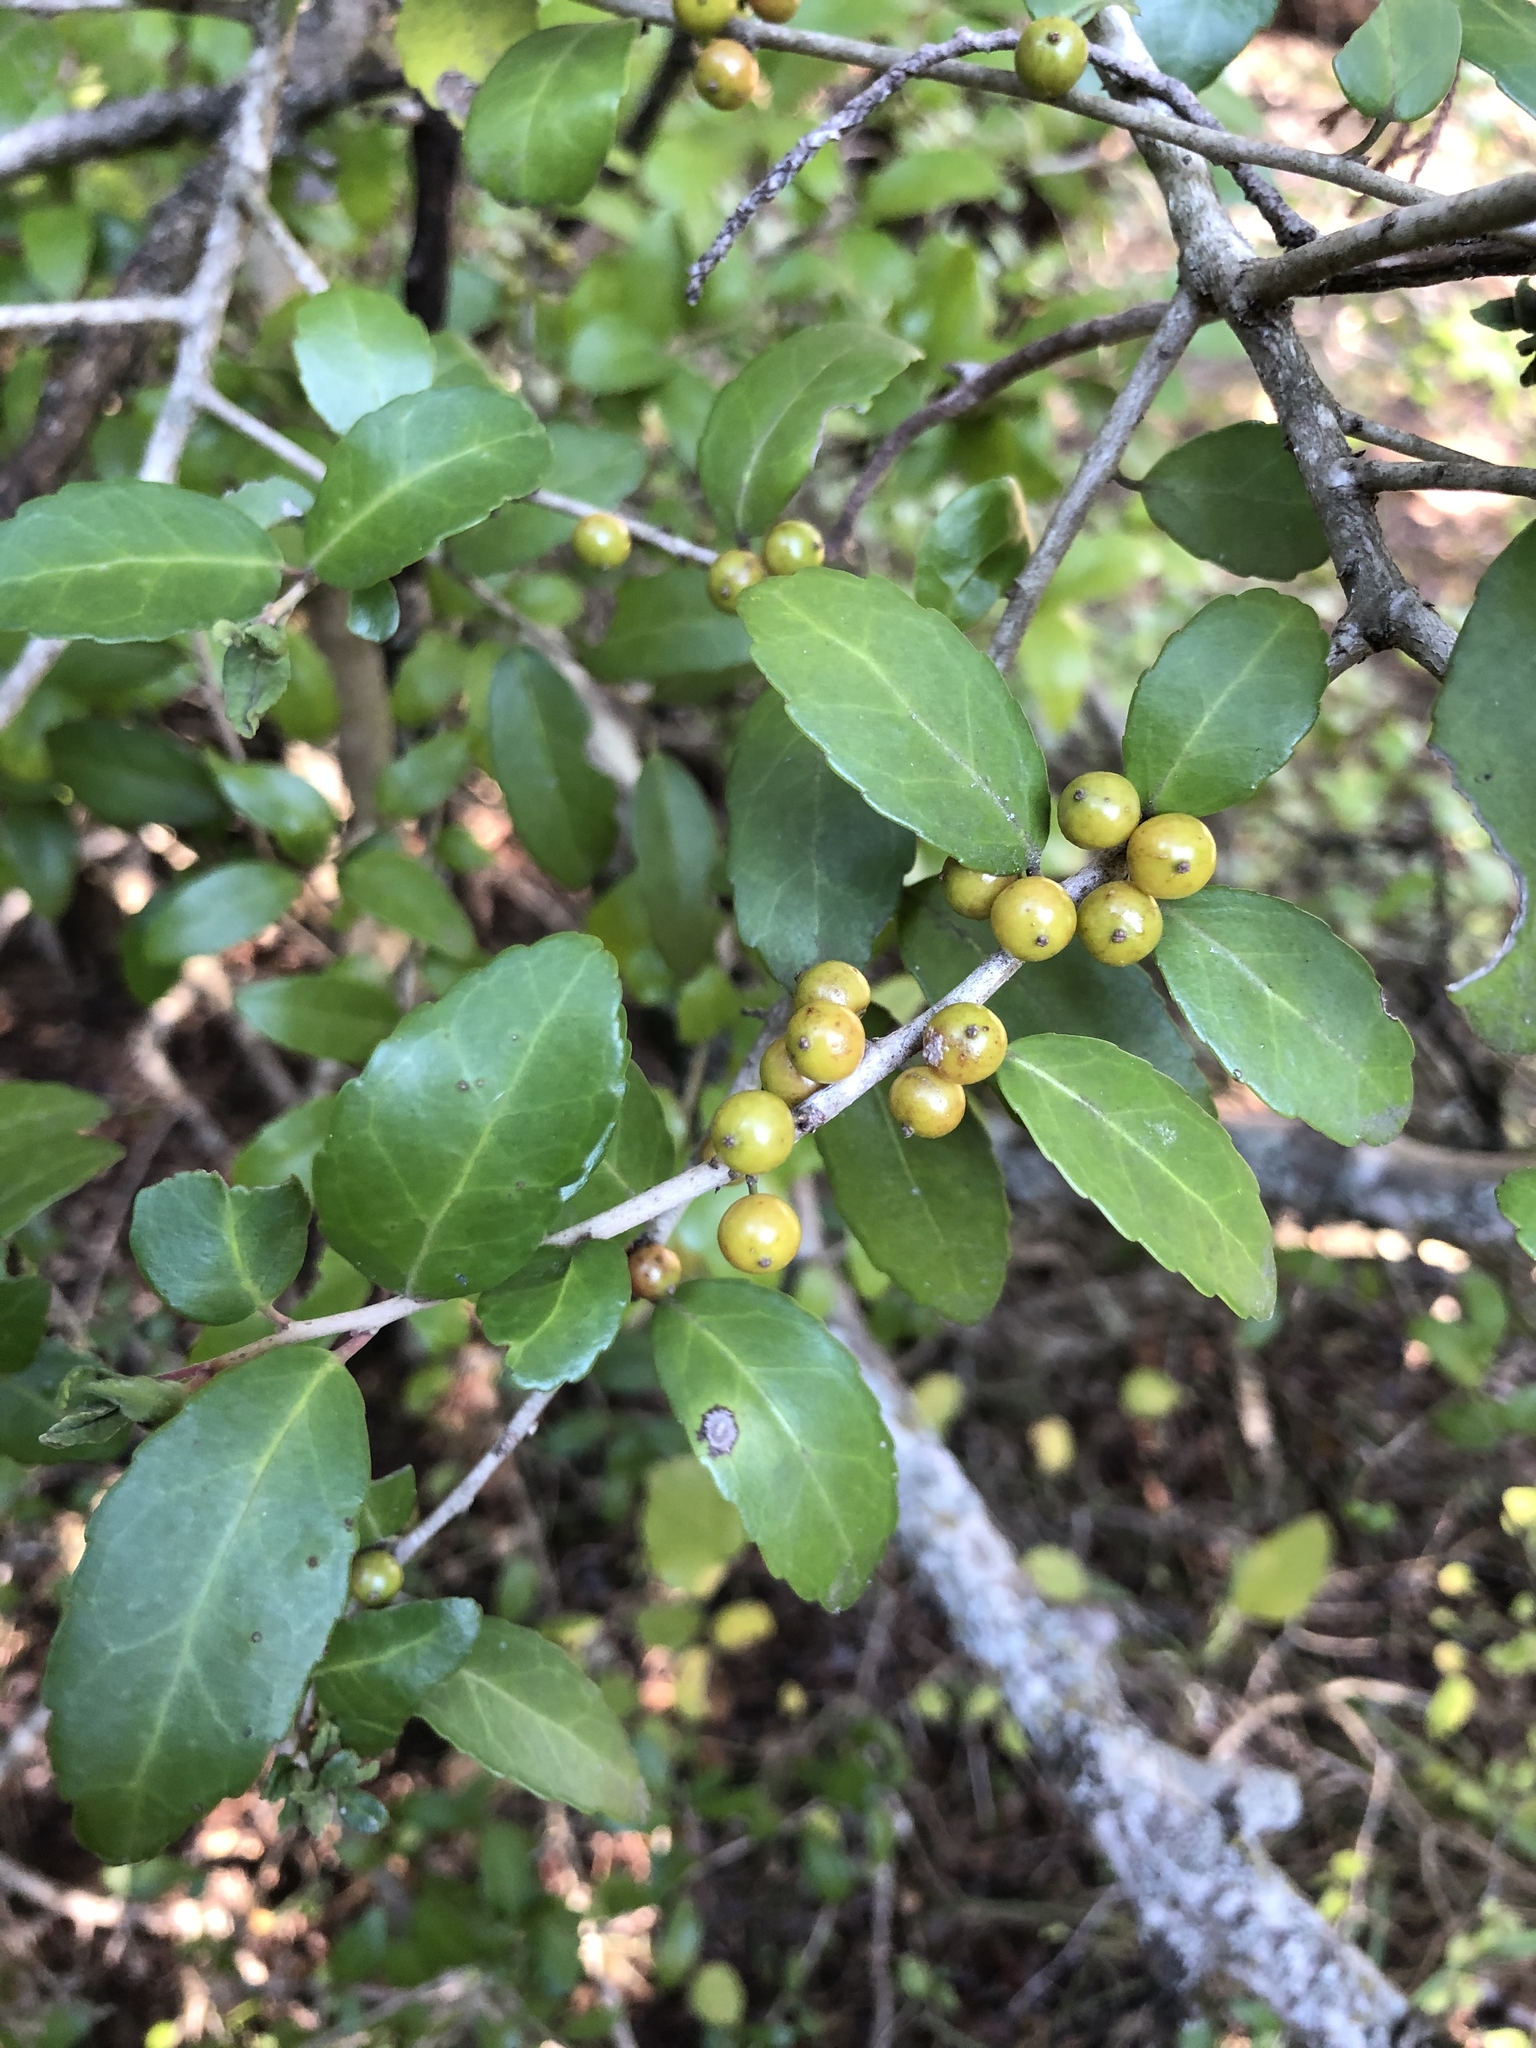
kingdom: Plantae
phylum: Tracheophyta
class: Magnoliopsida
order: Aquifoliales
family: Aquifoliaceae
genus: Ilex
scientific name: Ilex vomitoria
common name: Yaupon holly
